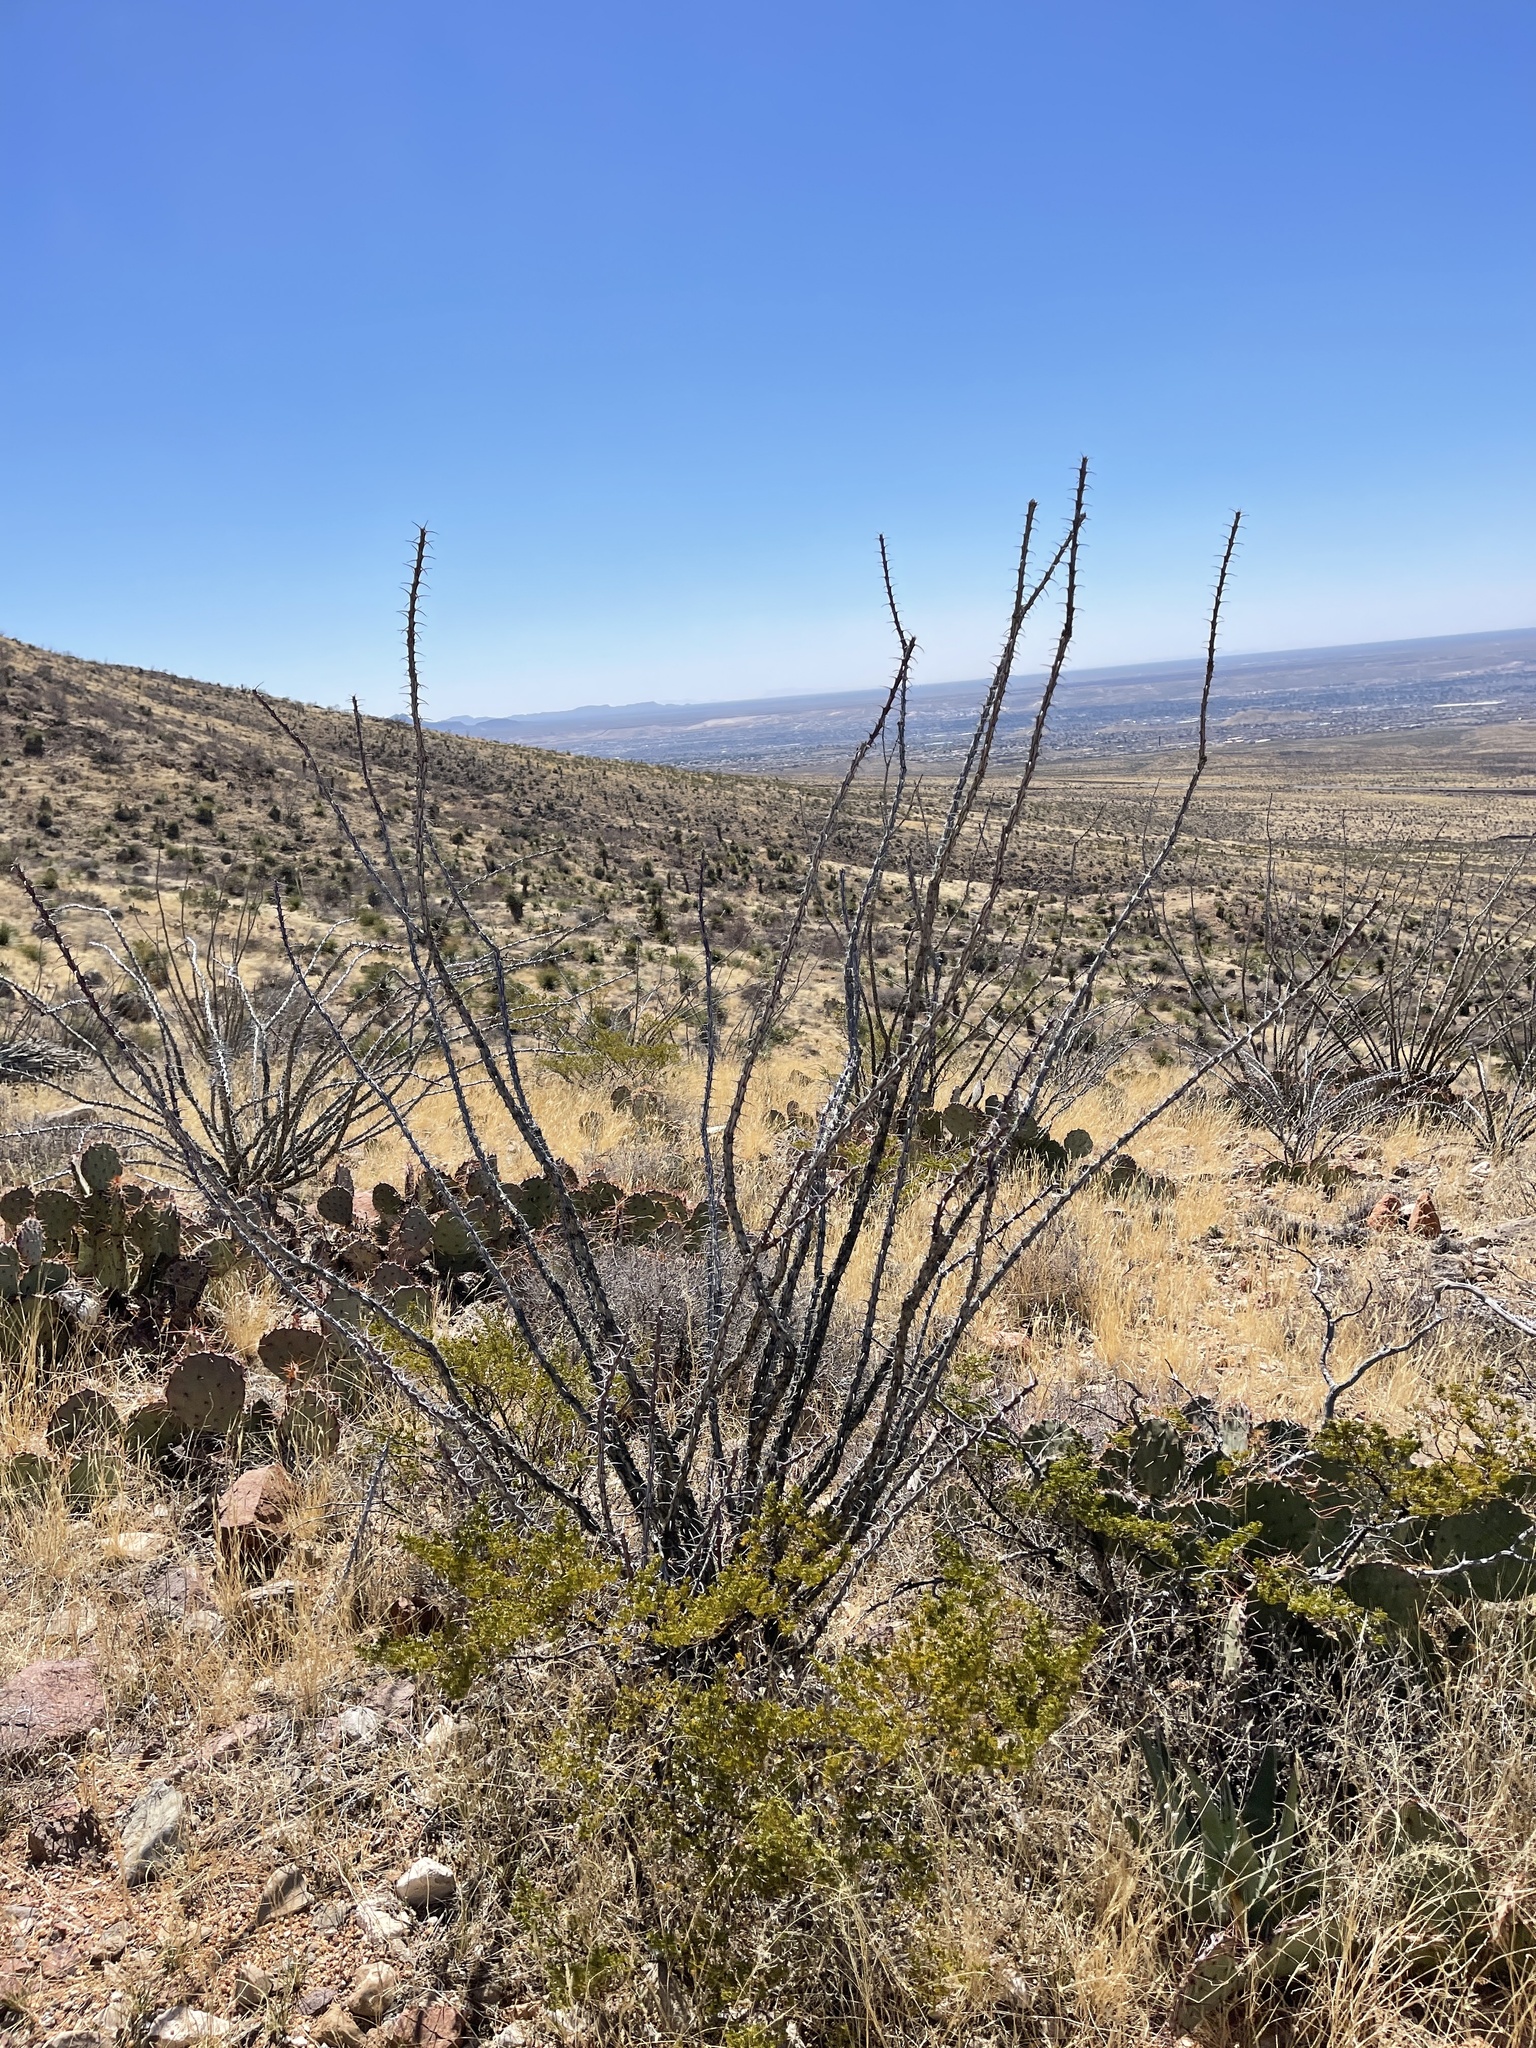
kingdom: Plantae
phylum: Tracheophyta
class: Magnoliopsida
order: Ericales
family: Fouquieriaceae
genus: Fouquieria
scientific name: Fouquieria splendens
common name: Vine-cactus
